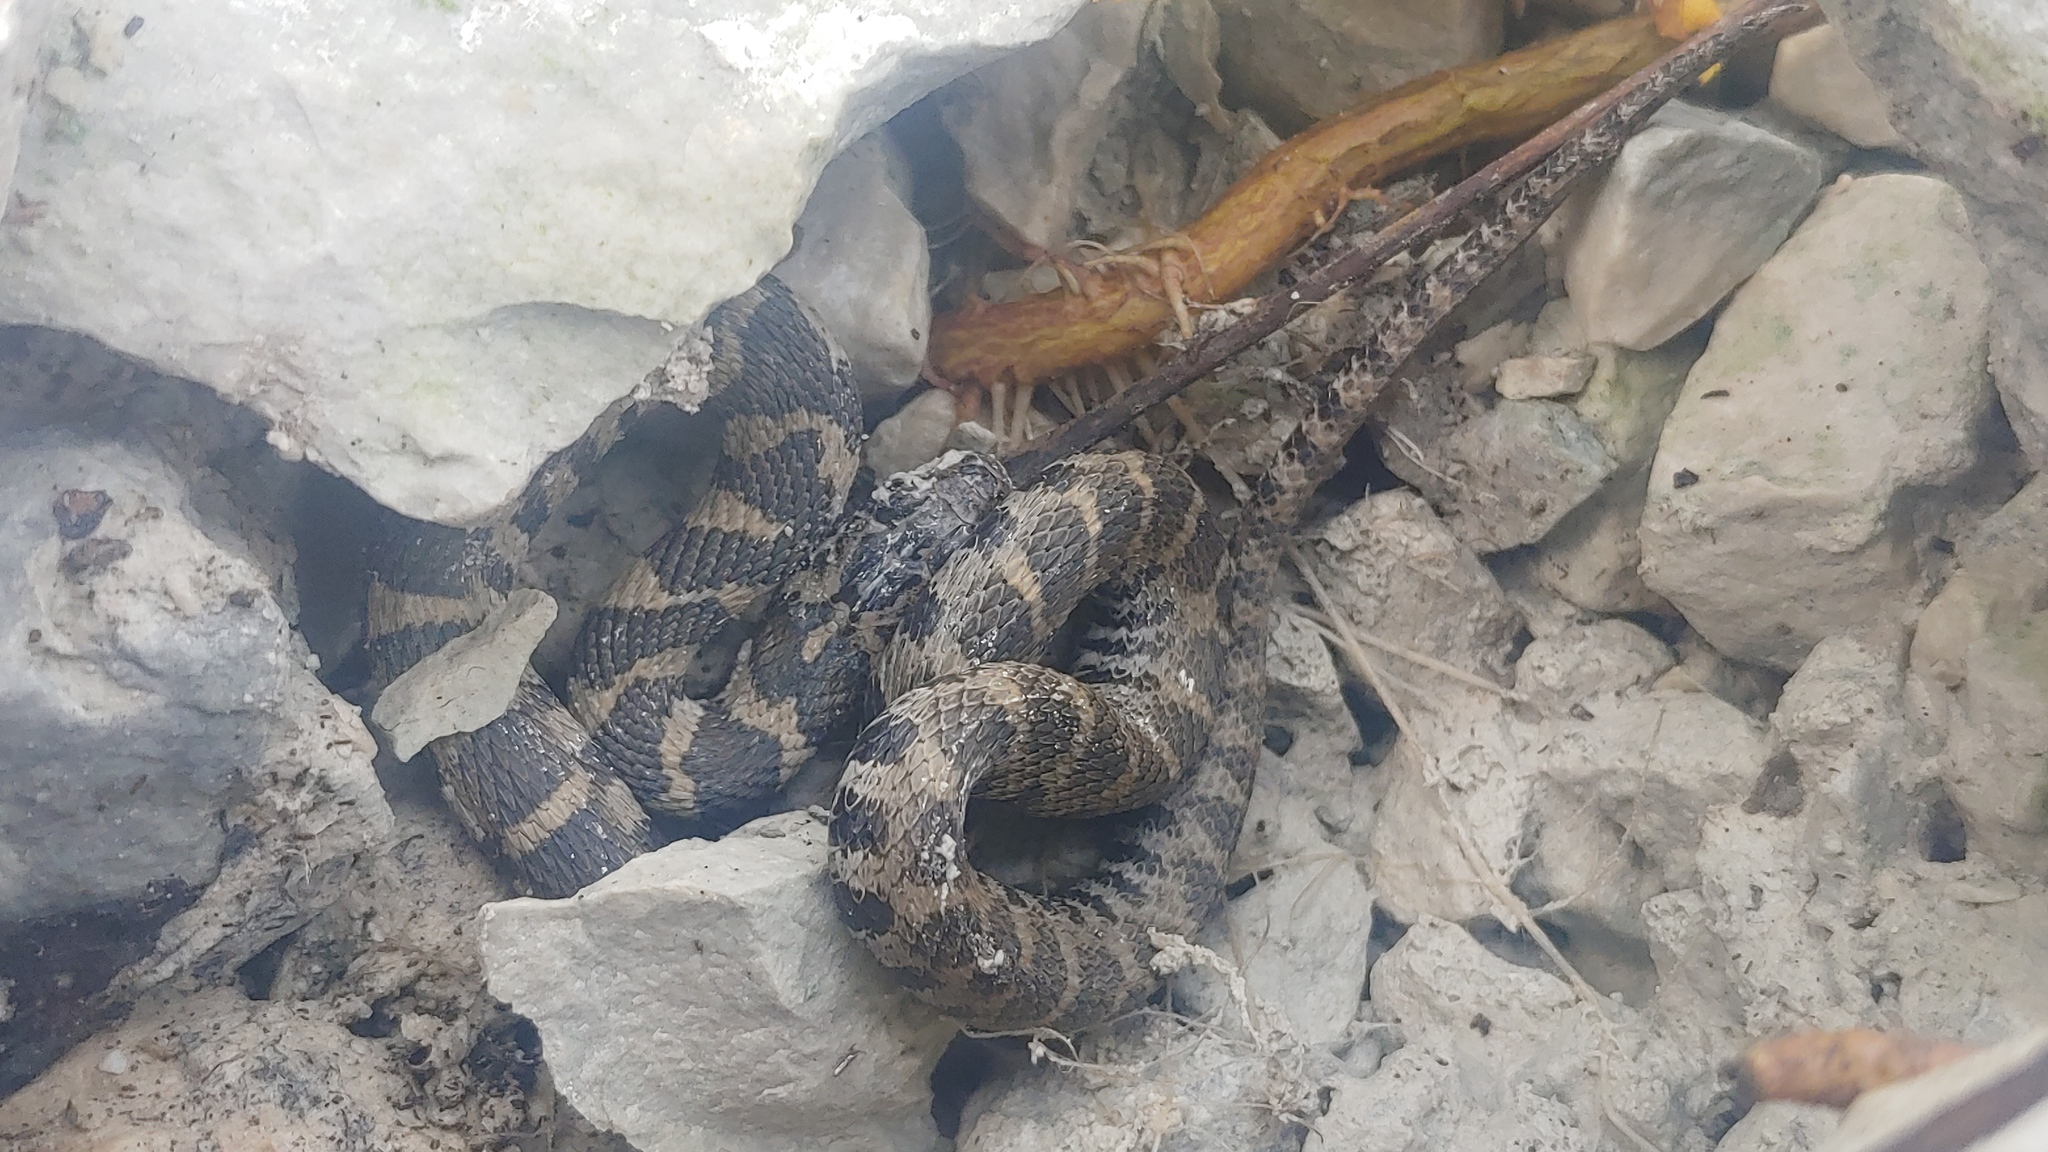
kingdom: Animalia
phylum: Chordata
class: Squamata
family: Colubridae
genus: Nerodia
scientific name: Nerodia sipedon
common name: Northern water snake
